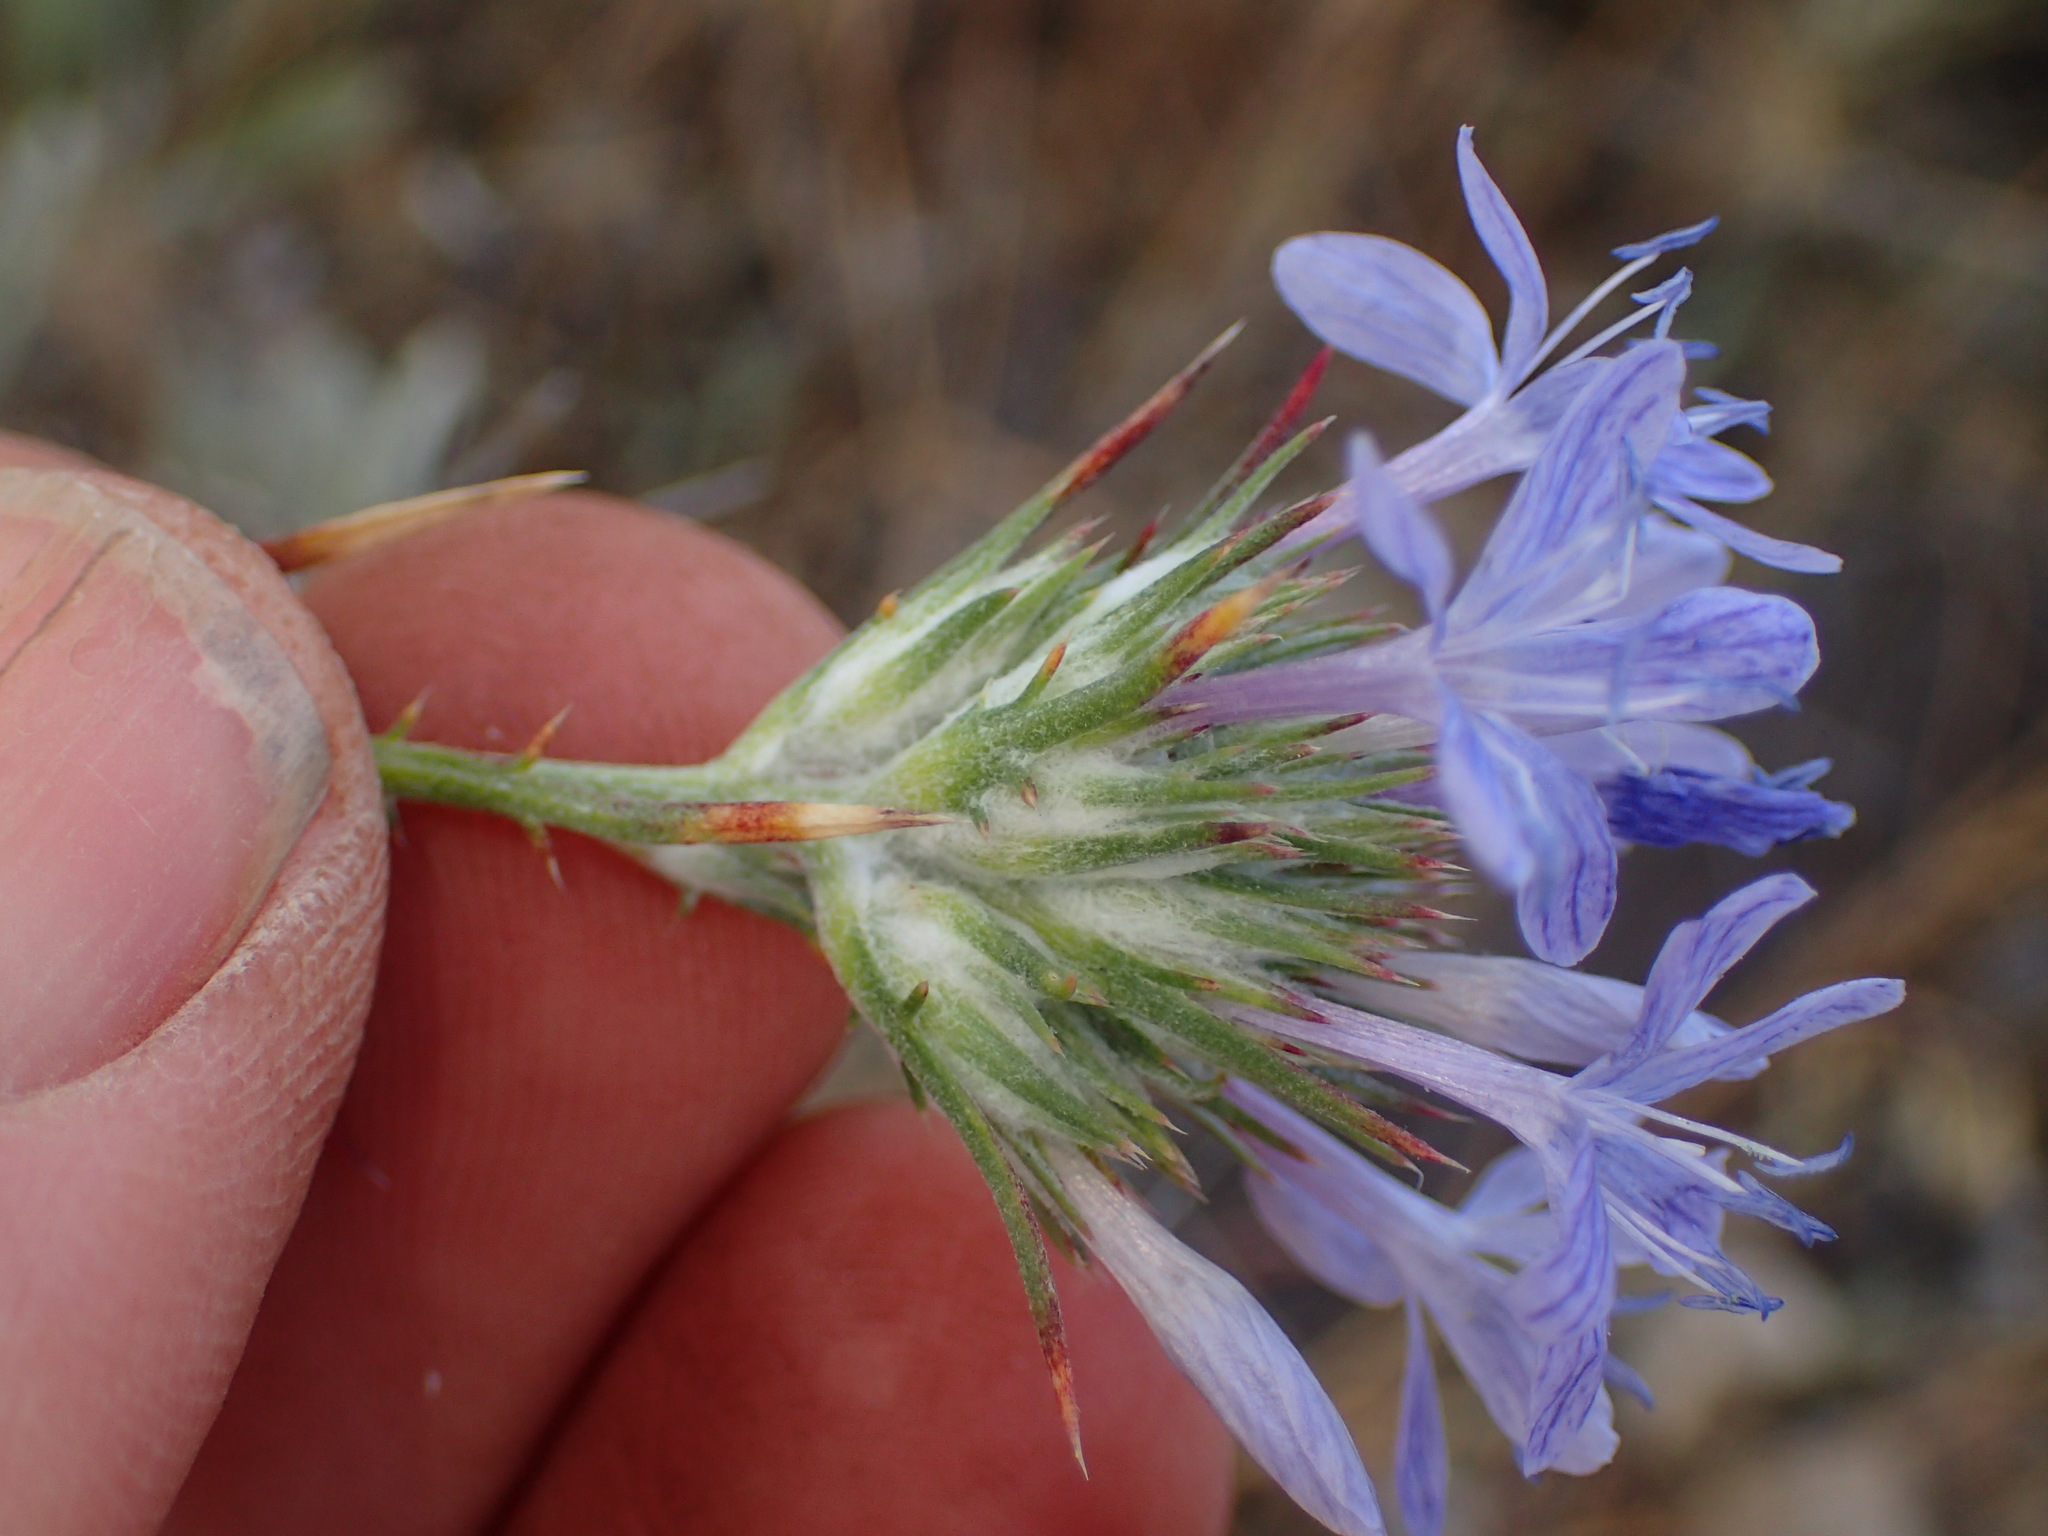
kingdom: Plantae
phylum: Tracheophyta
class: Magnoliopsida
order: Ericales
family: Polemoniaceae
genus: Eriastrum
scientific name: Eriastrum densifolium
